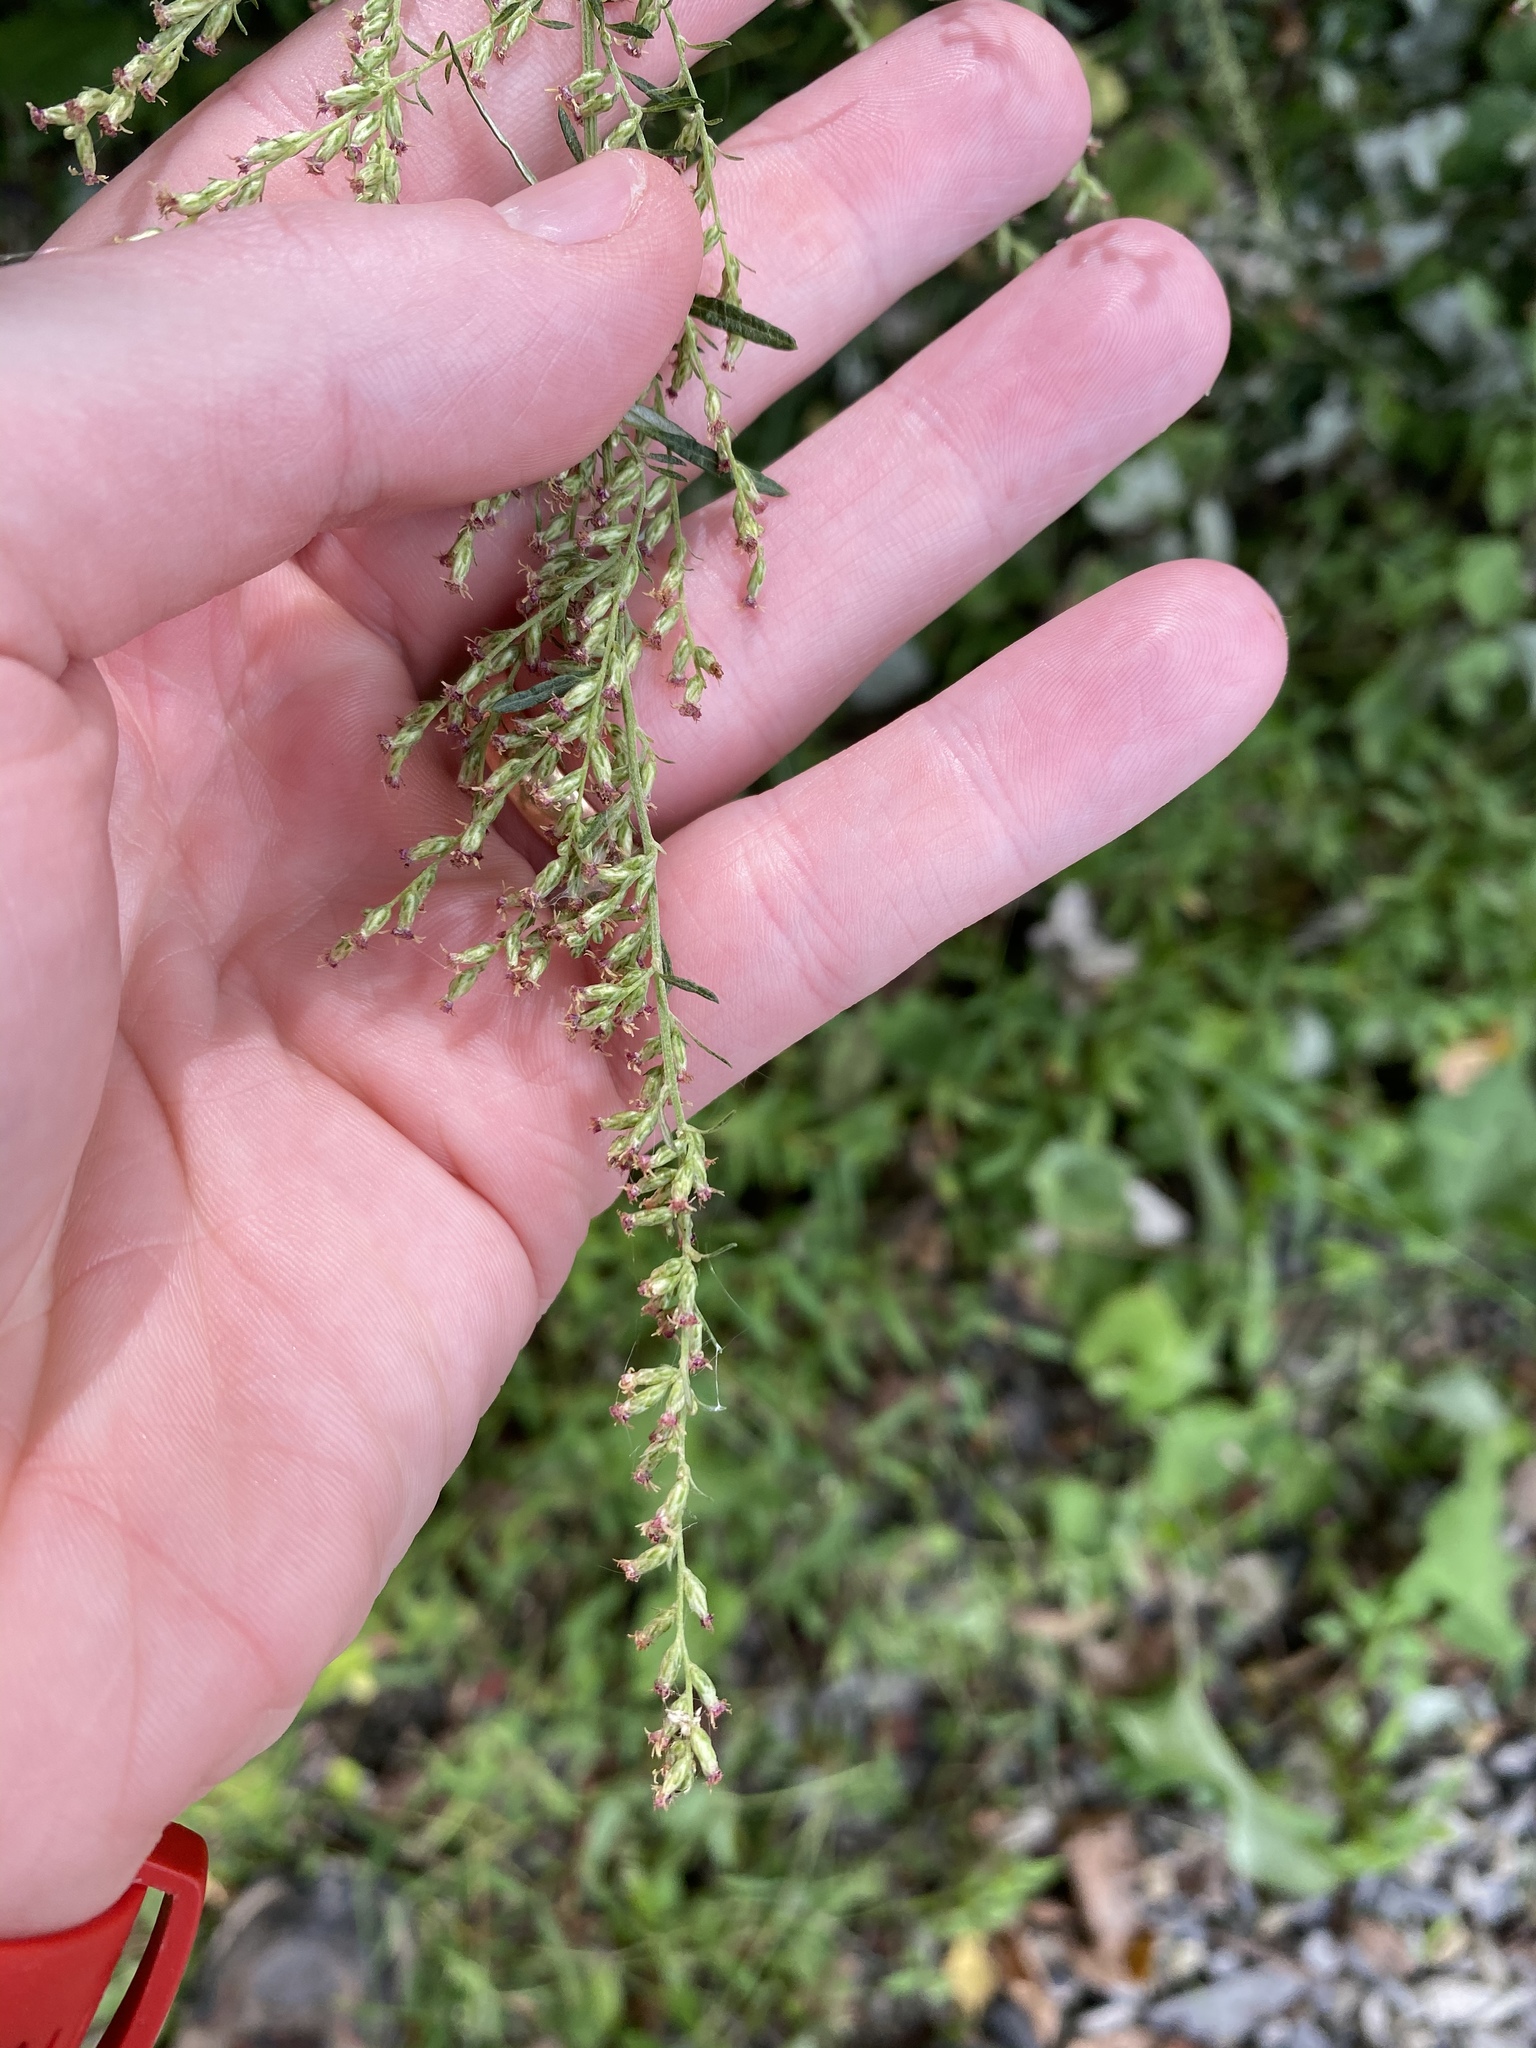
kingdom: Plantae
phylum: Tracheophyta
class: Magnoliopsida
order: Asterales
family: Asteraceae
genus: Artemisia
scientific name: Artemisia vulgaris
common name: Mugwort
